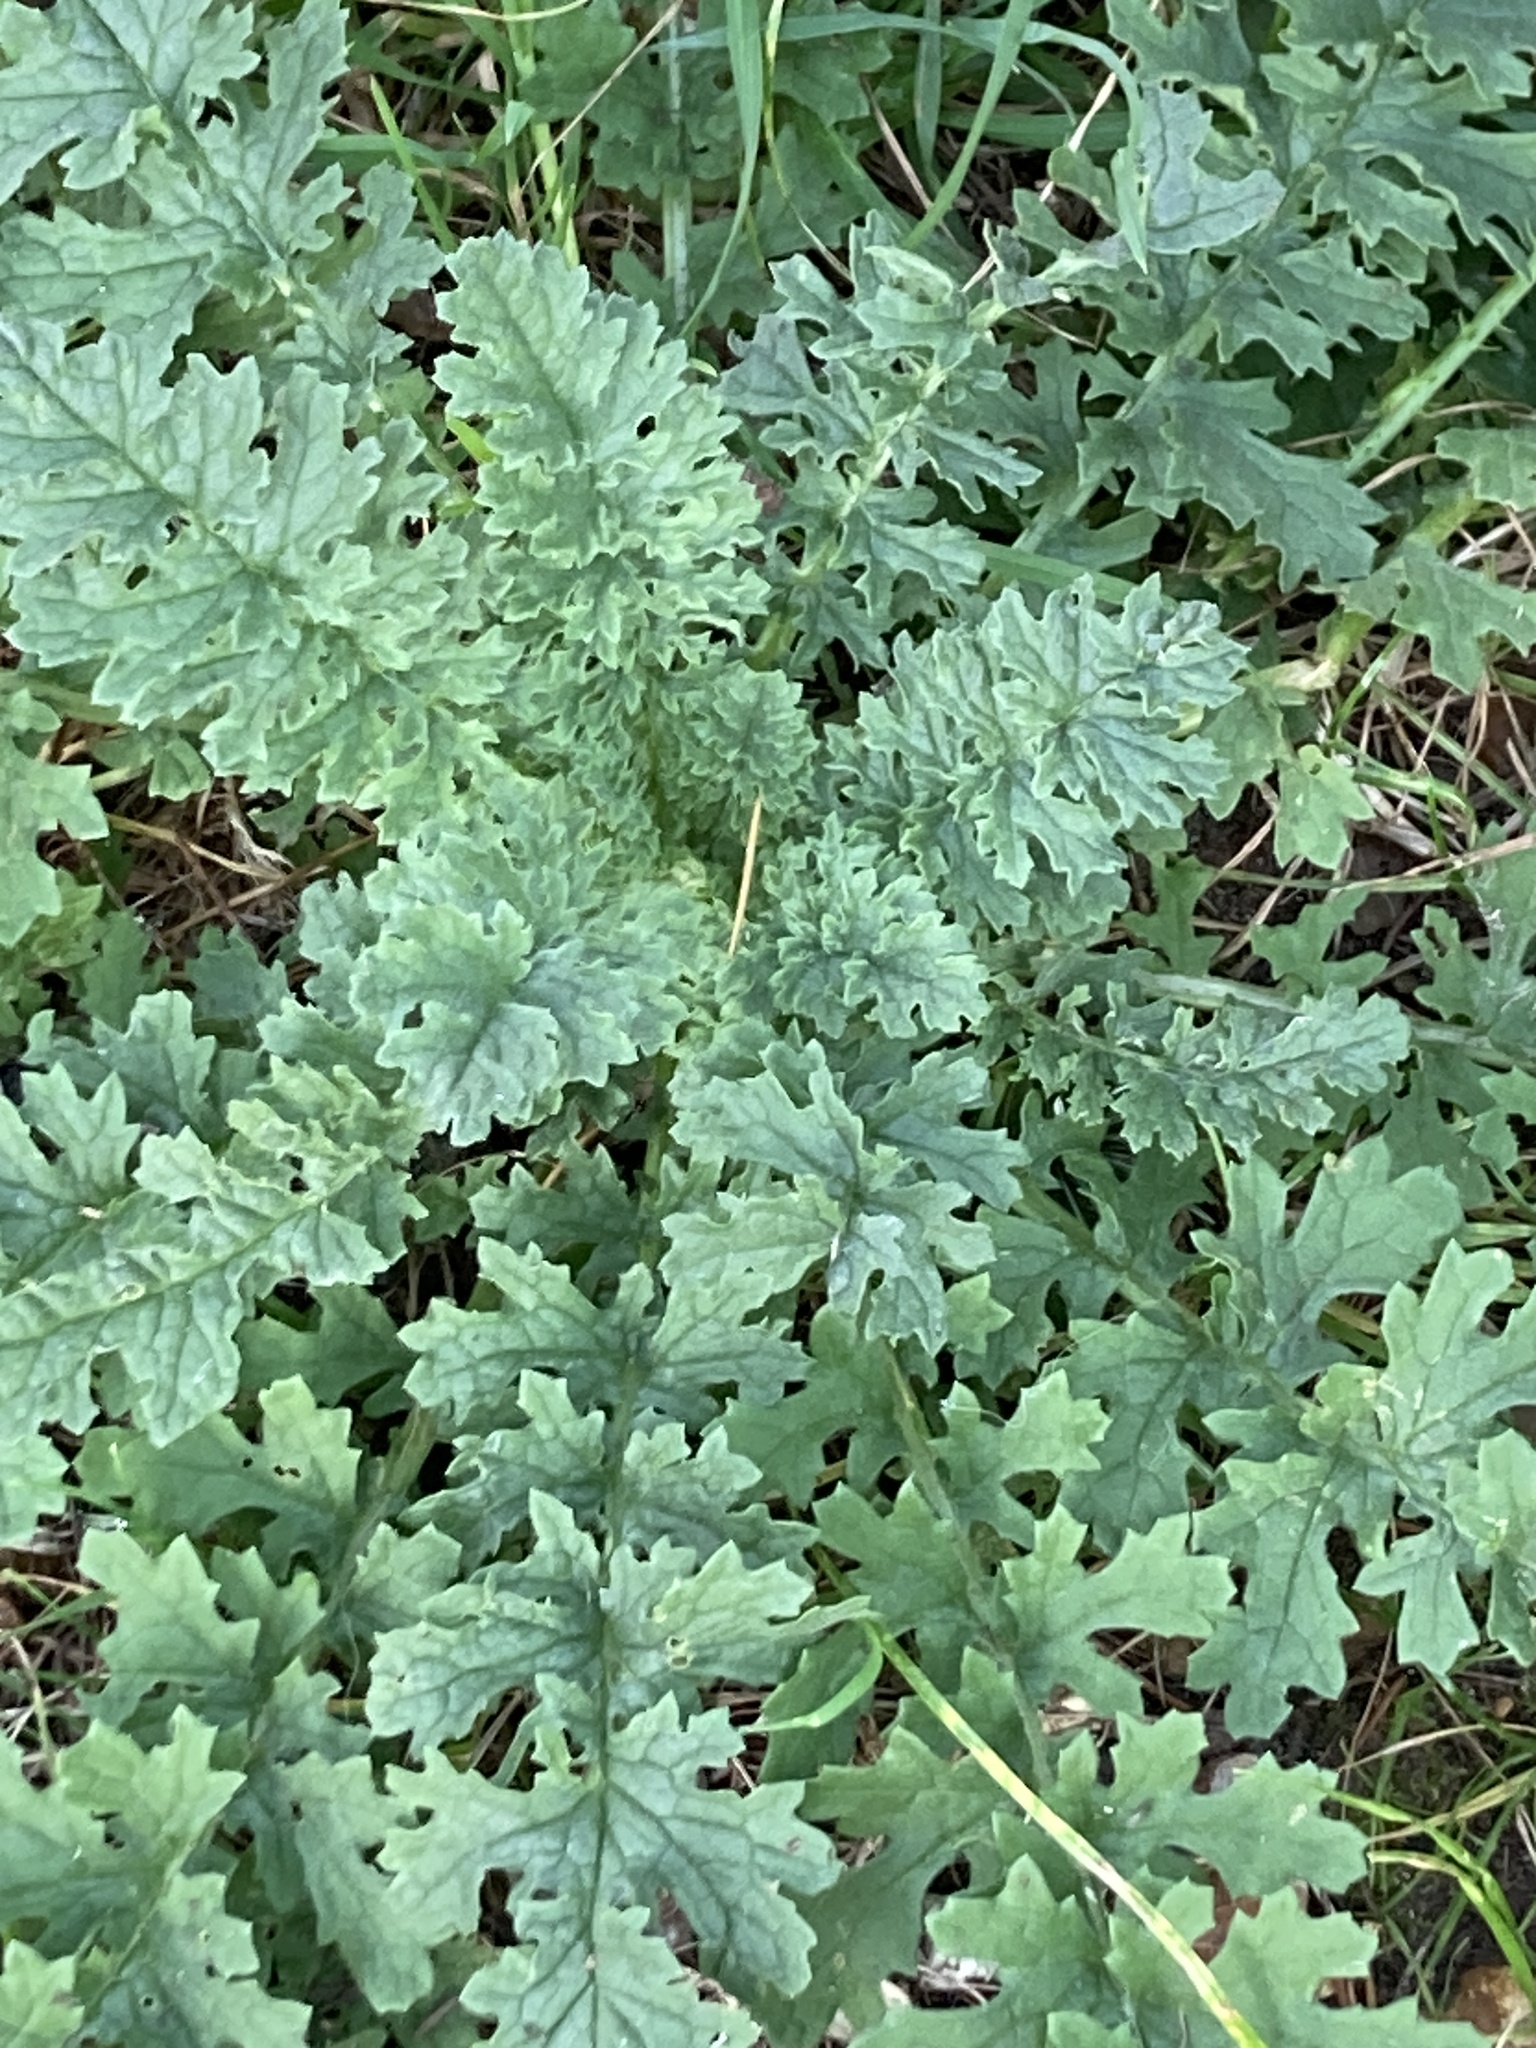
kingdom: Plantae
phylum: Tracheophyta
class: Magnoliopsida
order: Asterales
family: Asteraceae
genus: Jacobaea
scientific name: Jacobaea vulgaris
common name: Stinking willie
